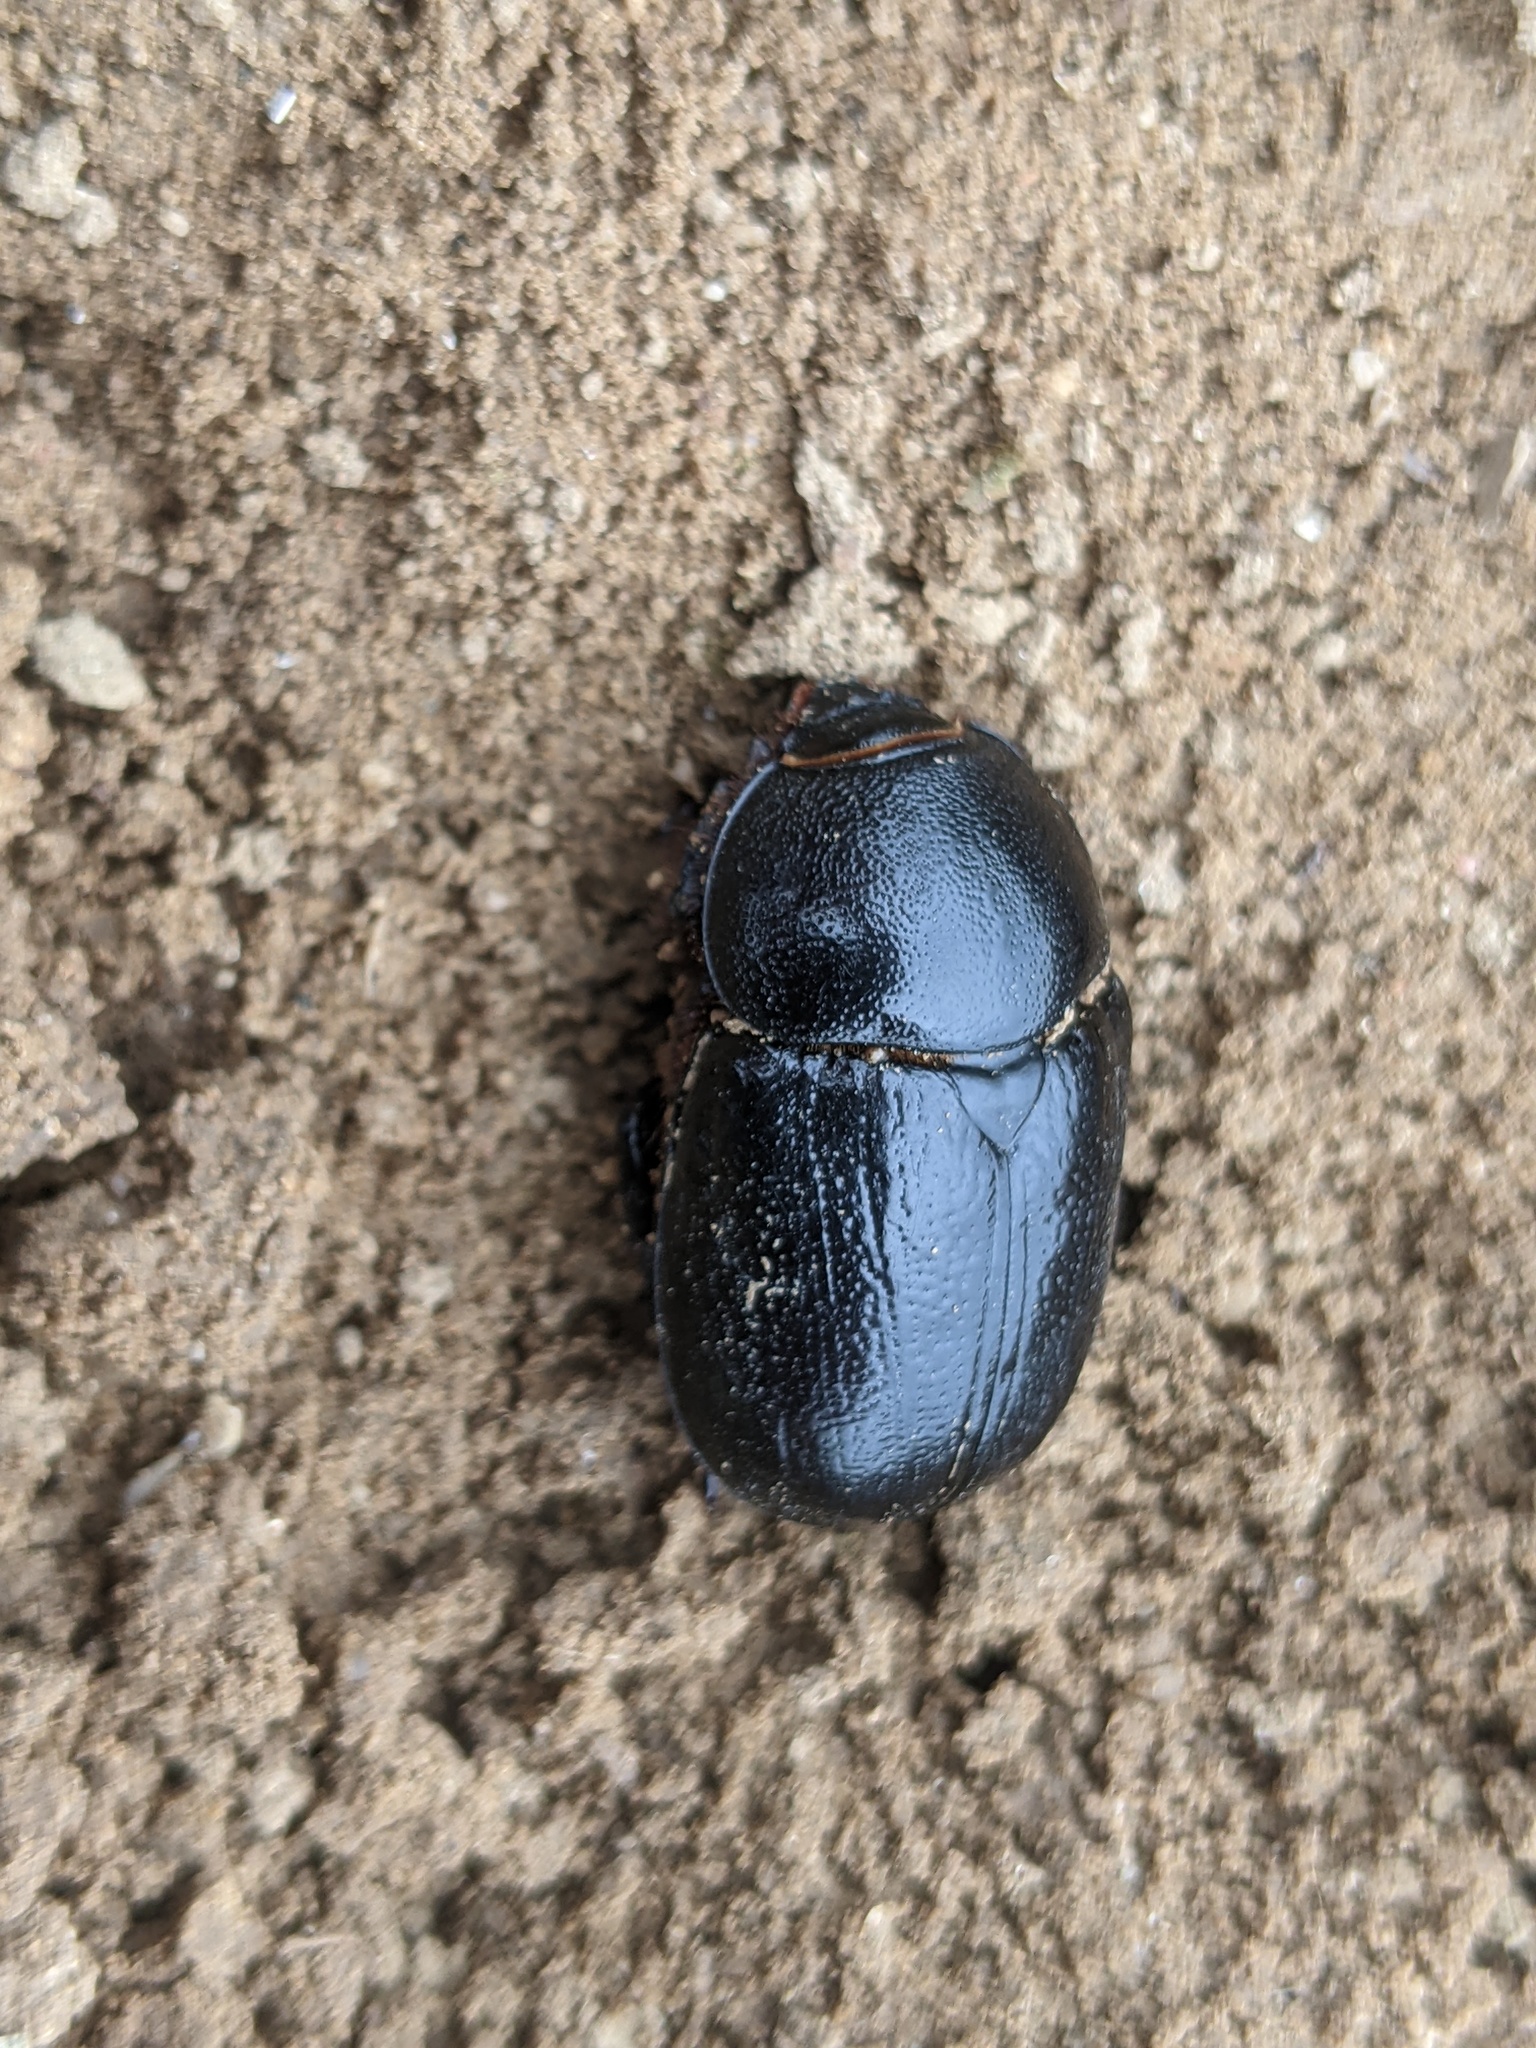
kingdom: Animalia
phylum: Arthropoda
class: Insecta
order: Coleoptera
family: Scarabaeidae
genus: Pentodon
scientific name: Pentodon bidens
